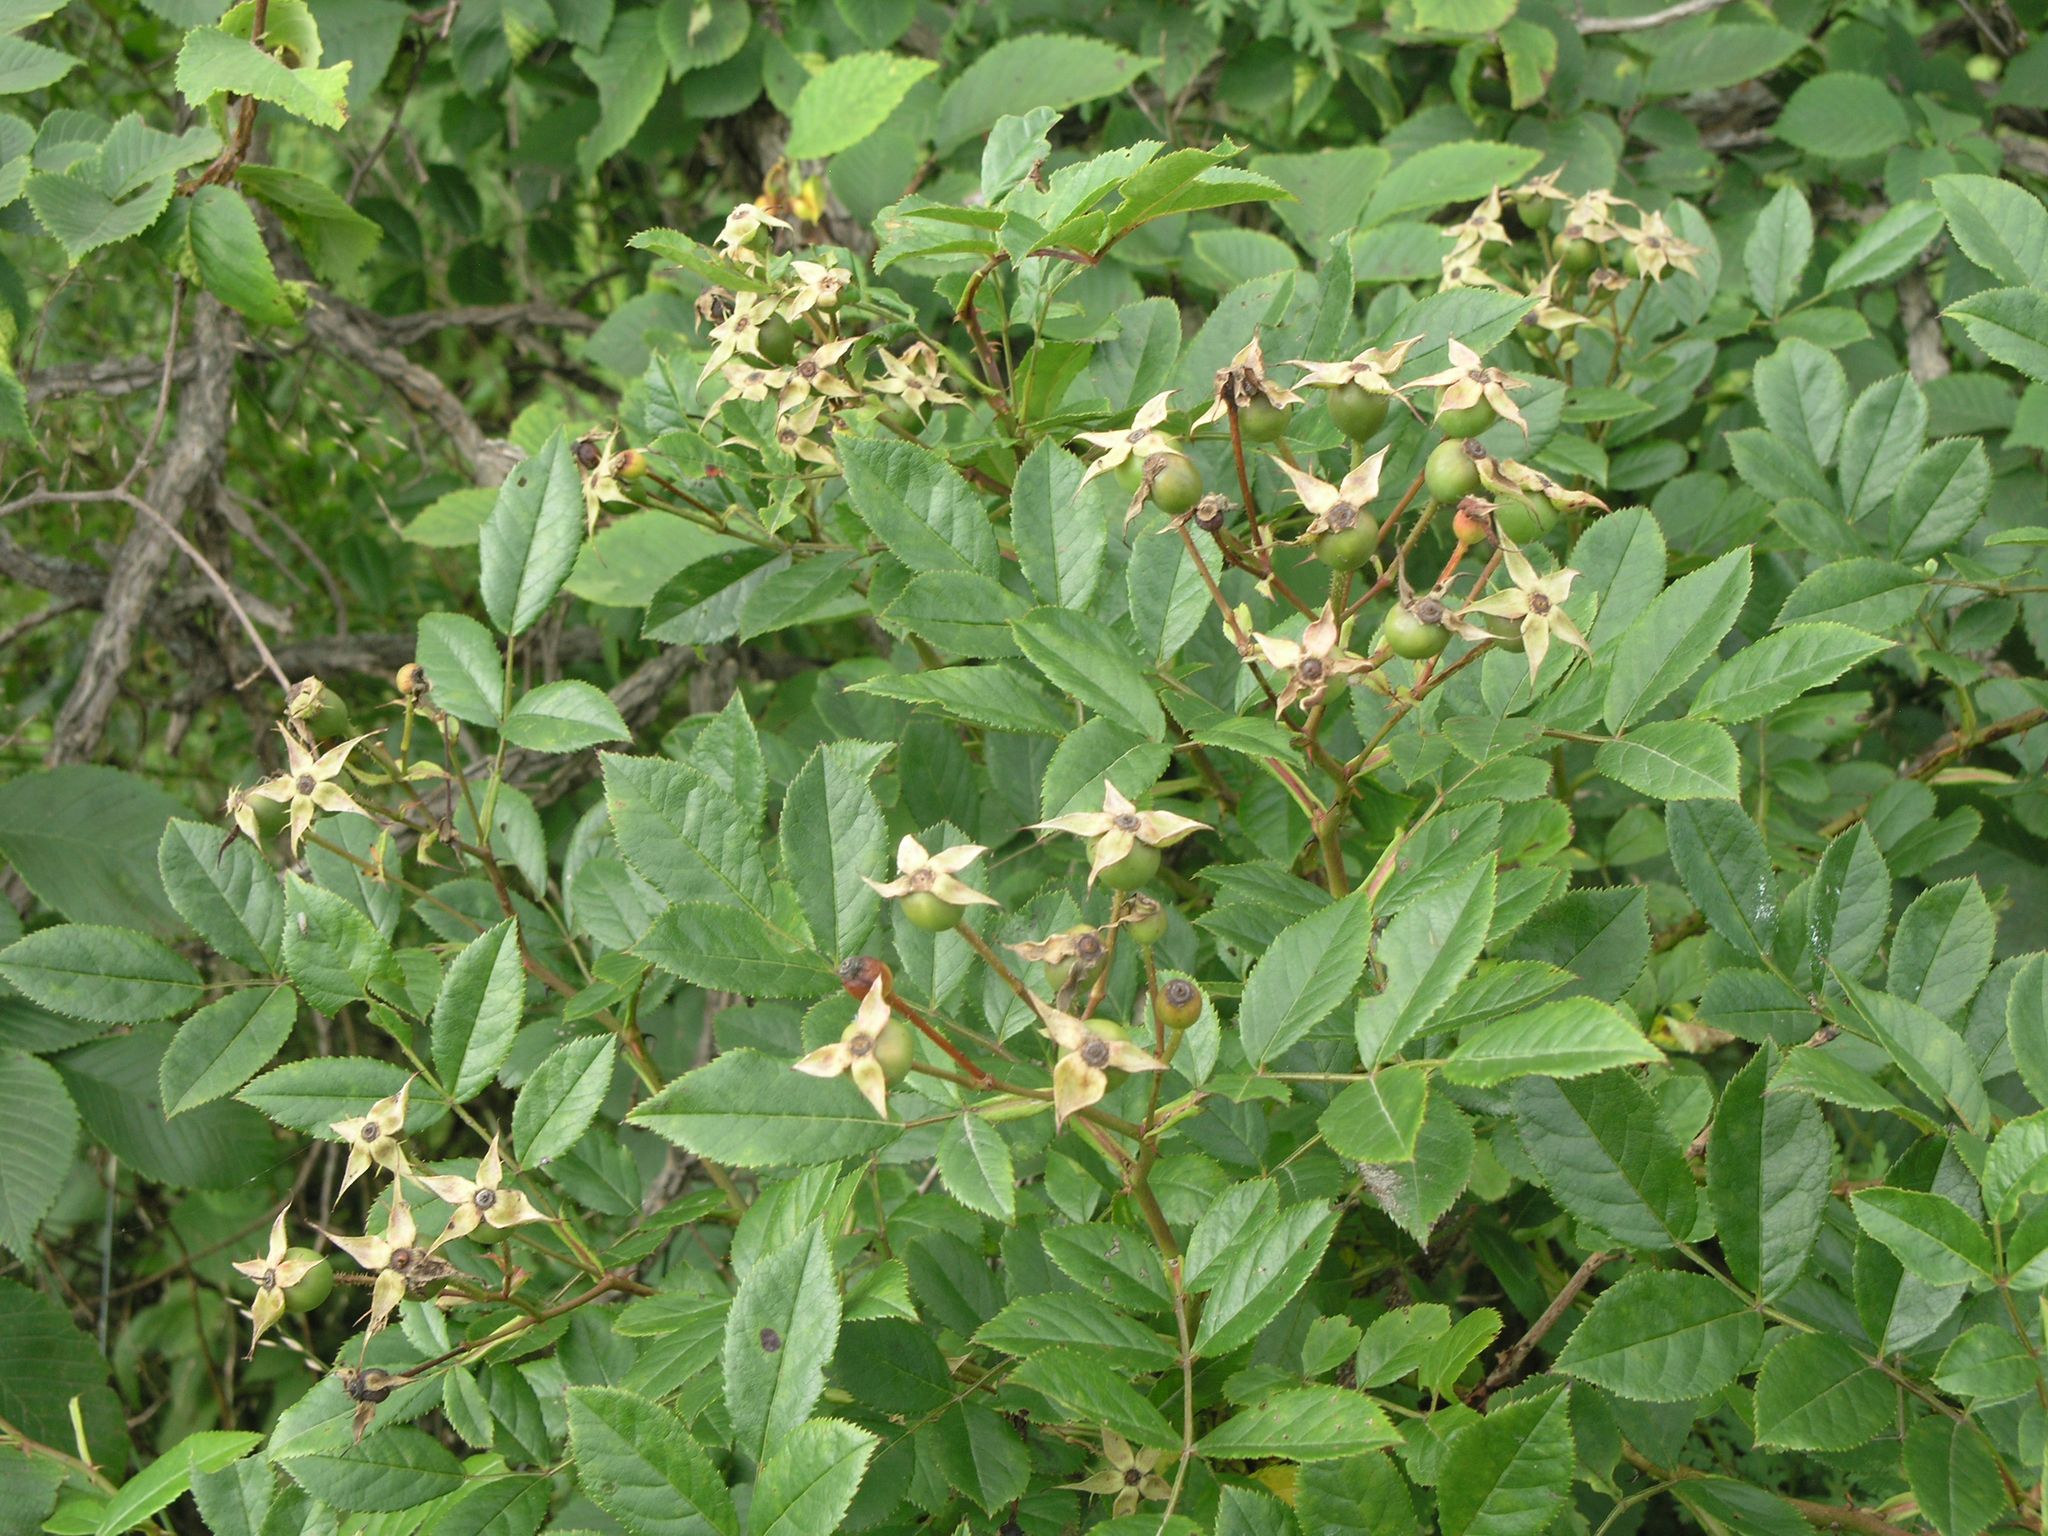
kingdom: Plantae
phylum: Tracheophyta
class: Magnoliopsida
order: Rosales
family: Rosaceae
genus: Rosa
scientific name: Rosa maximowicziana
